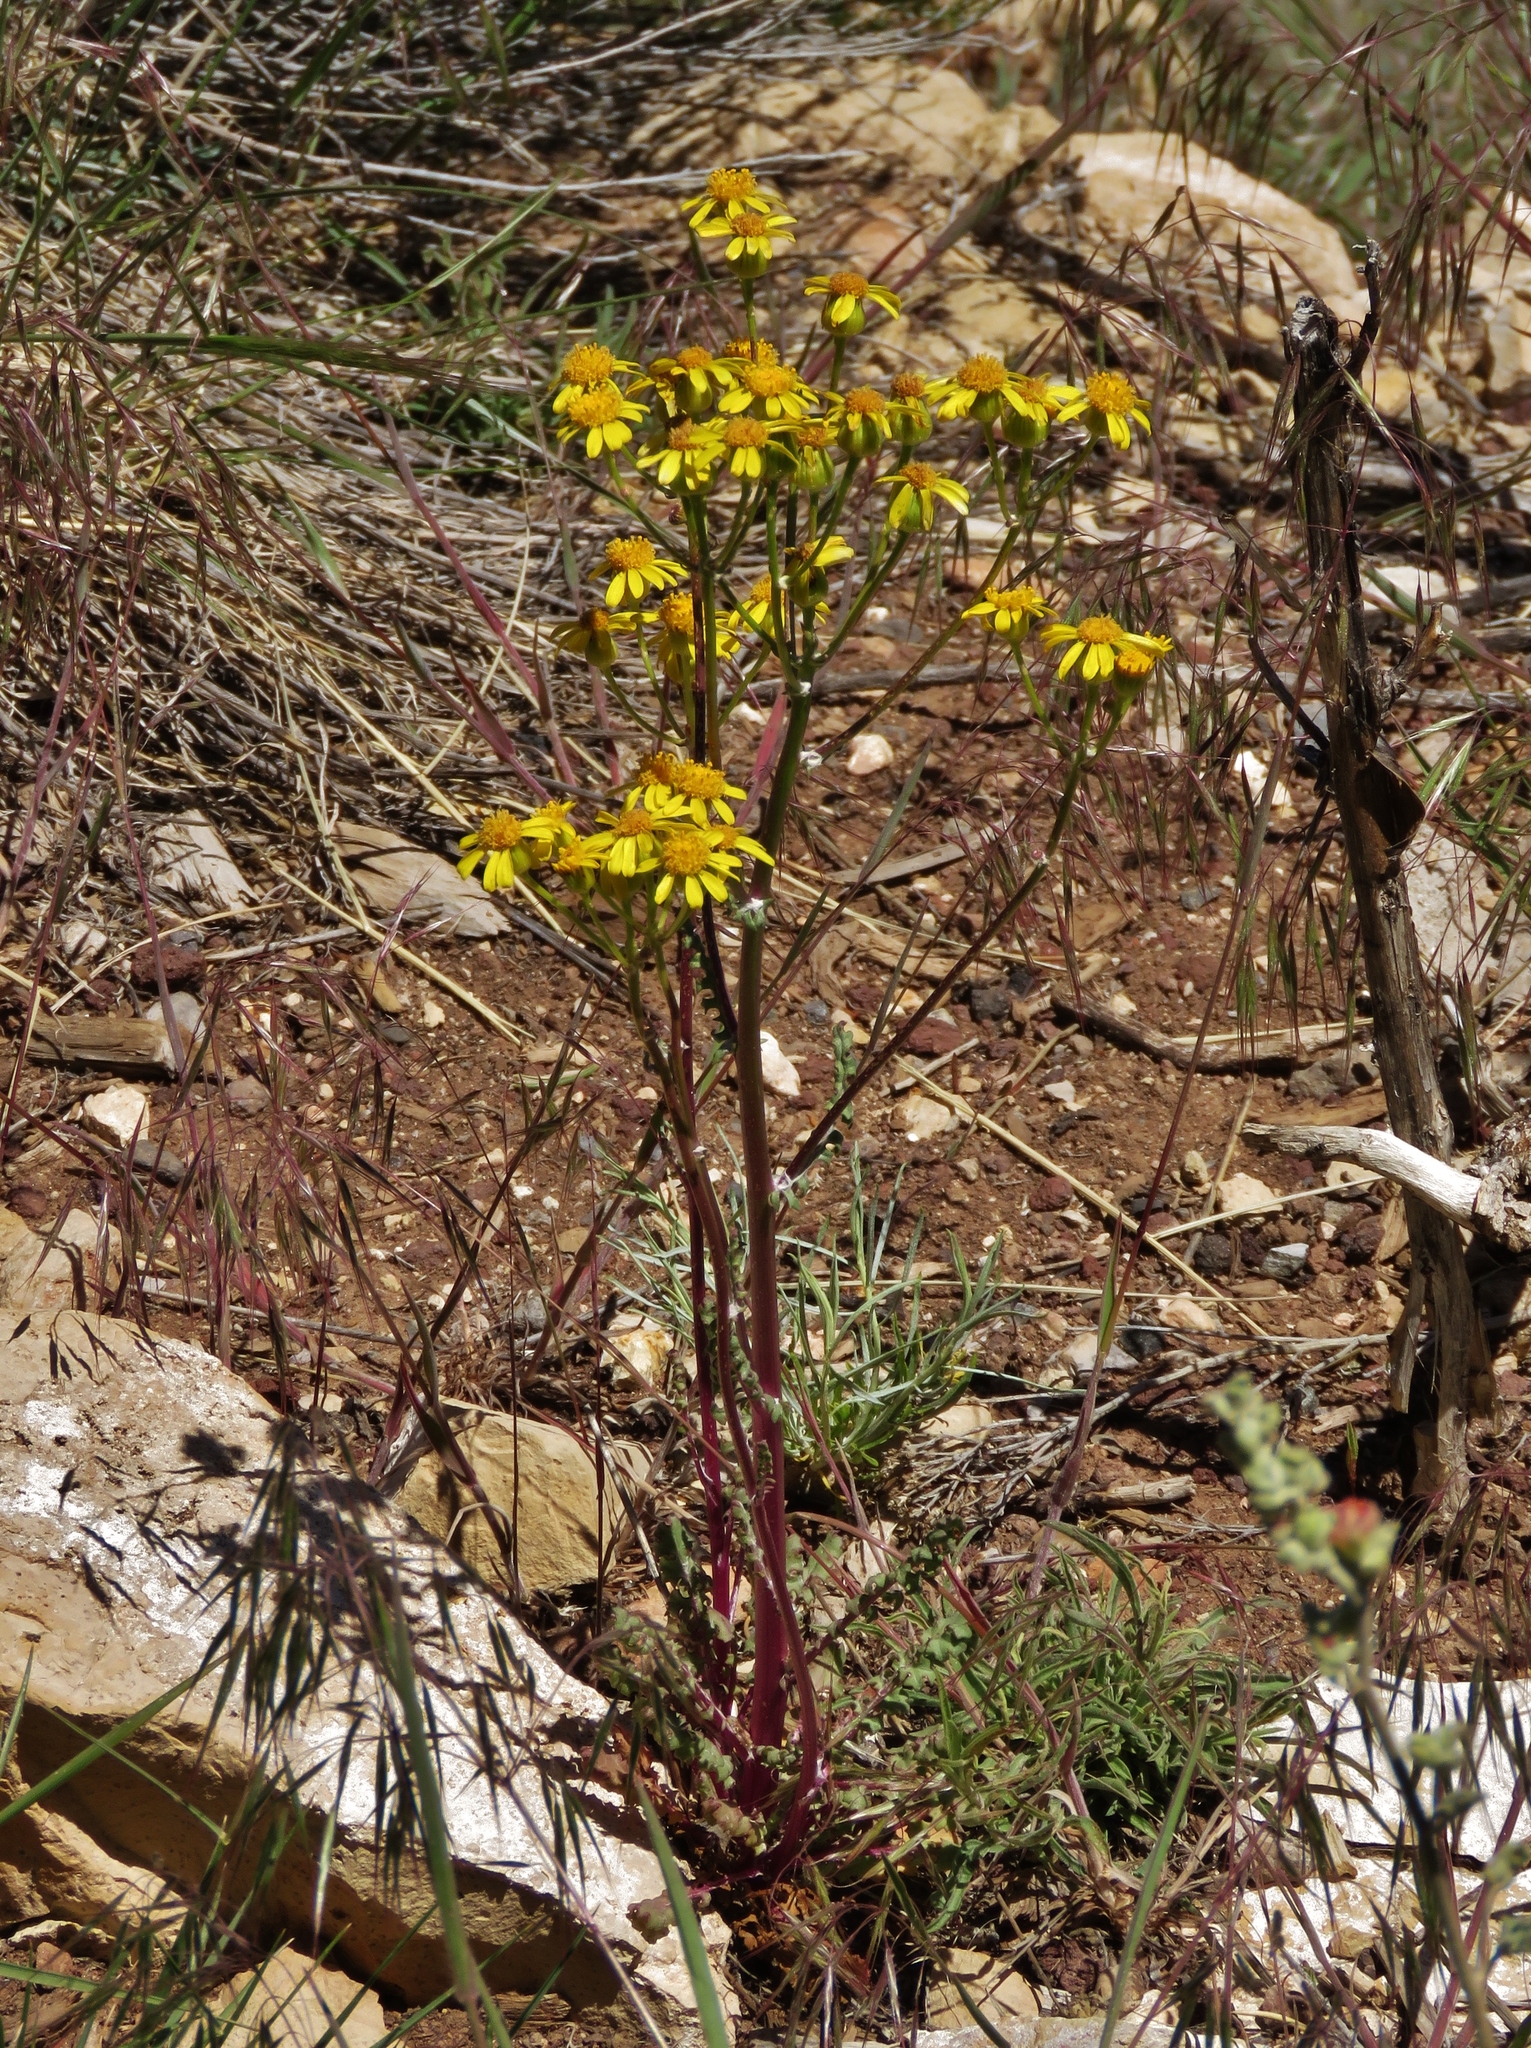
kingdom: Plantae
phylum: Tracheophyta
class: Magnoliopsida
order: Asterales
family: Asteraceae
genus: Packera
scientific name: Packera multilobata
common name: Lobe-leaf groundsel
